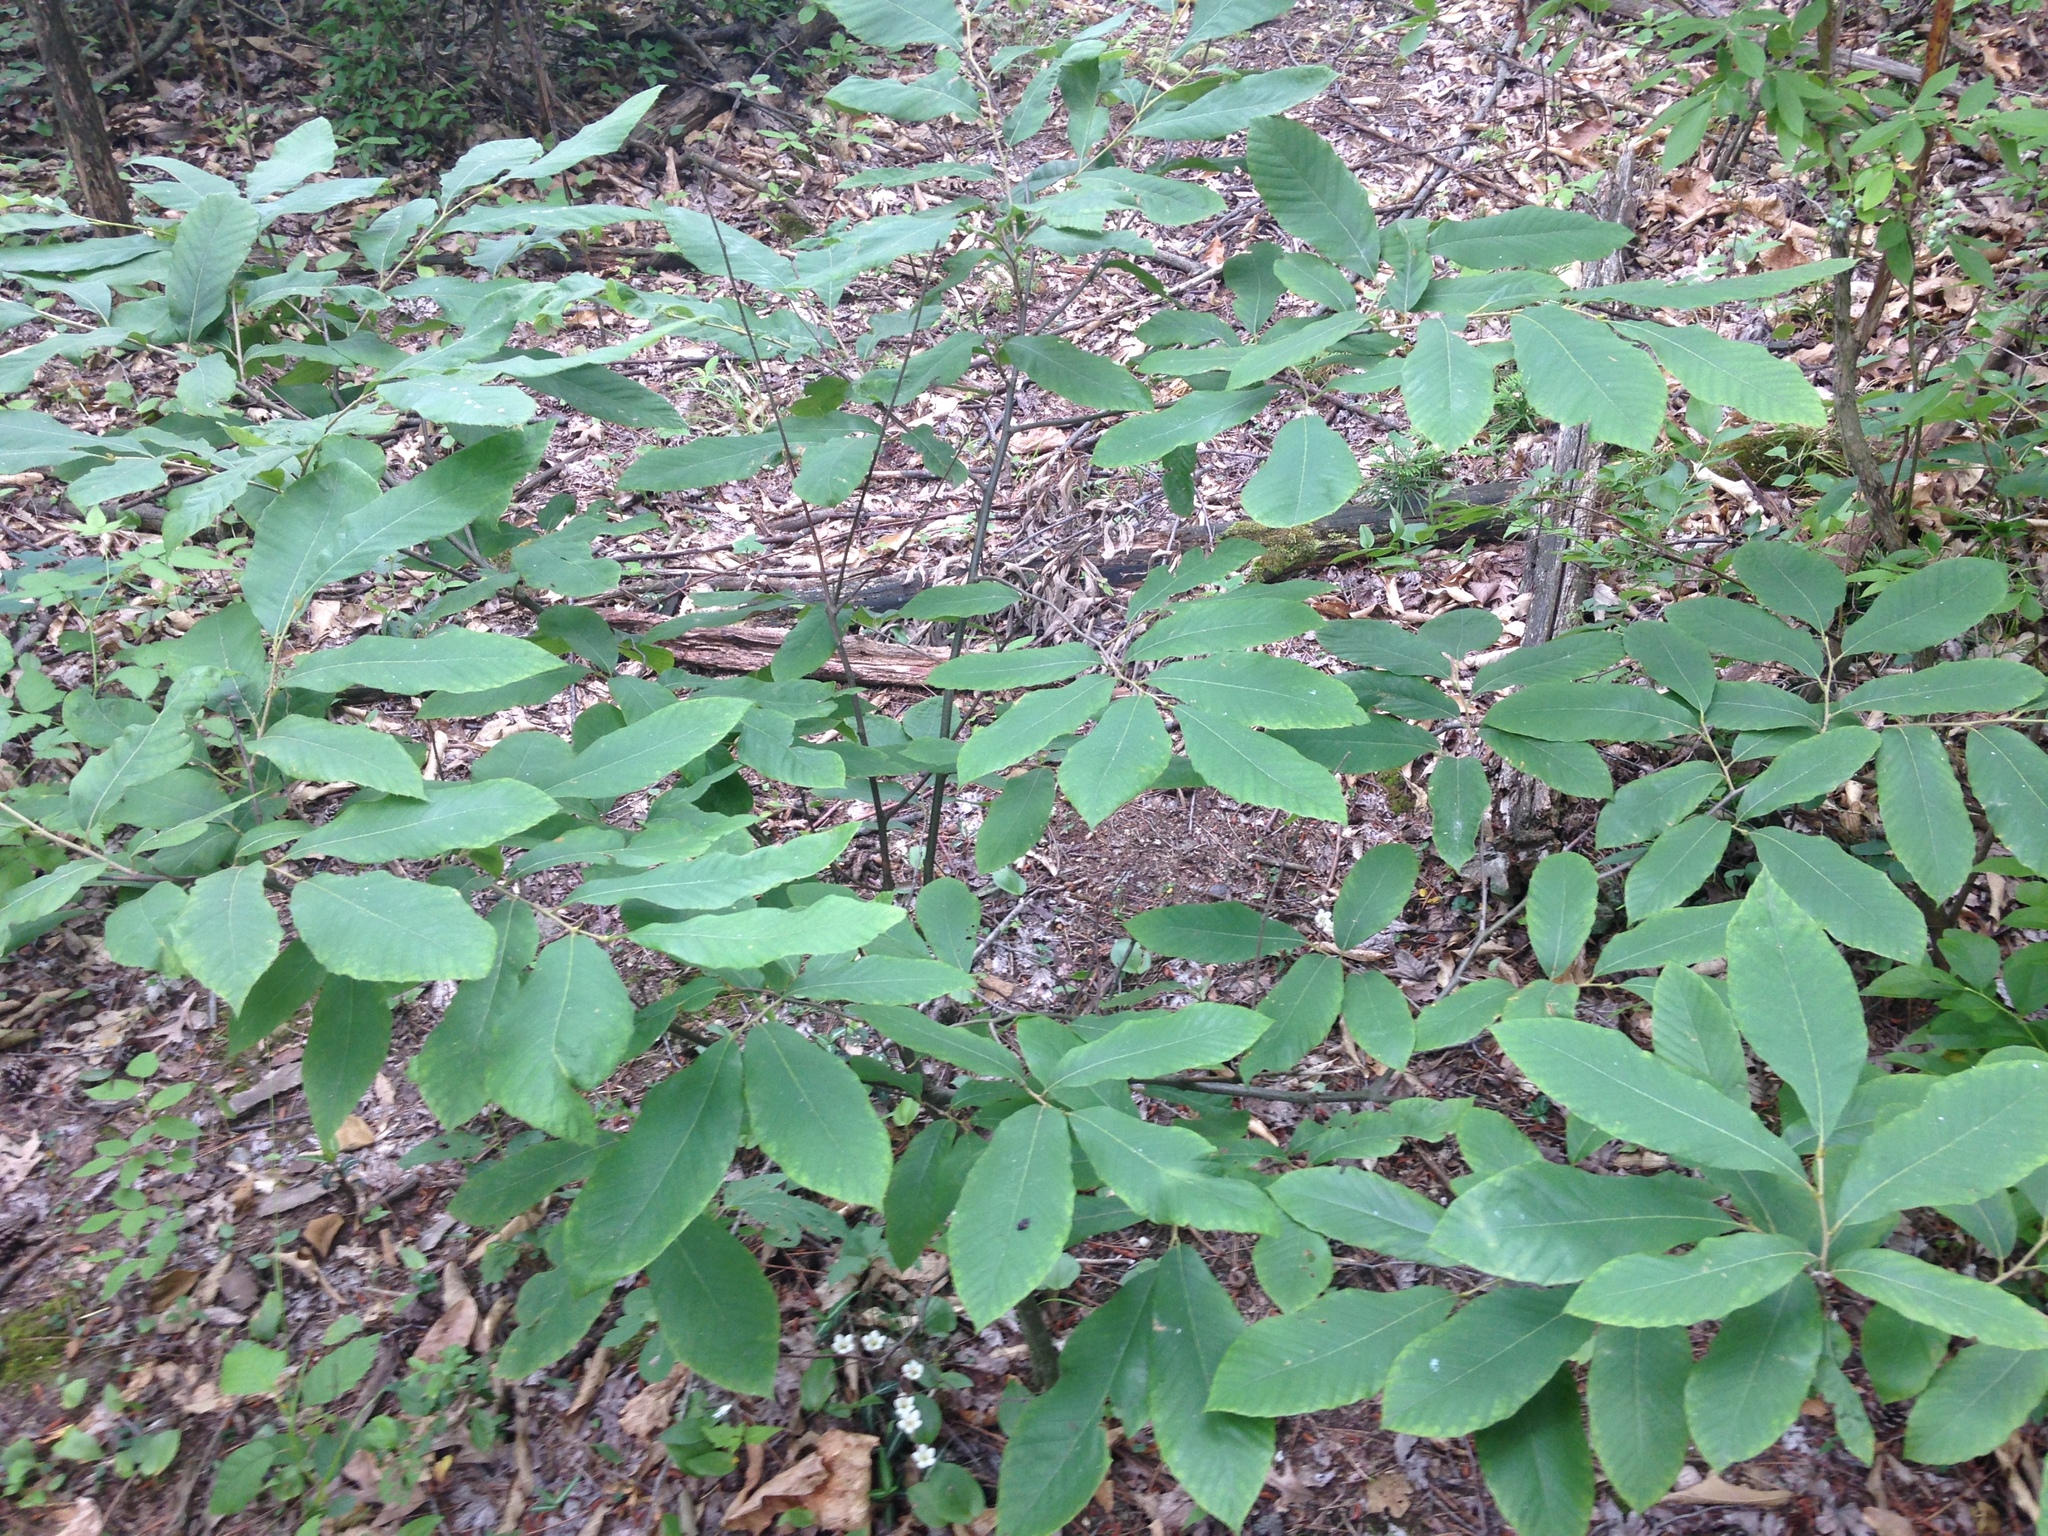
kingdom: Plantae
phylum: Tracheophyta
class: Magnoliopsida
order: Fagales
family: Fagaceae
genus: Castanea
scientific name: Castanea pumila
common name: Chinkapin
